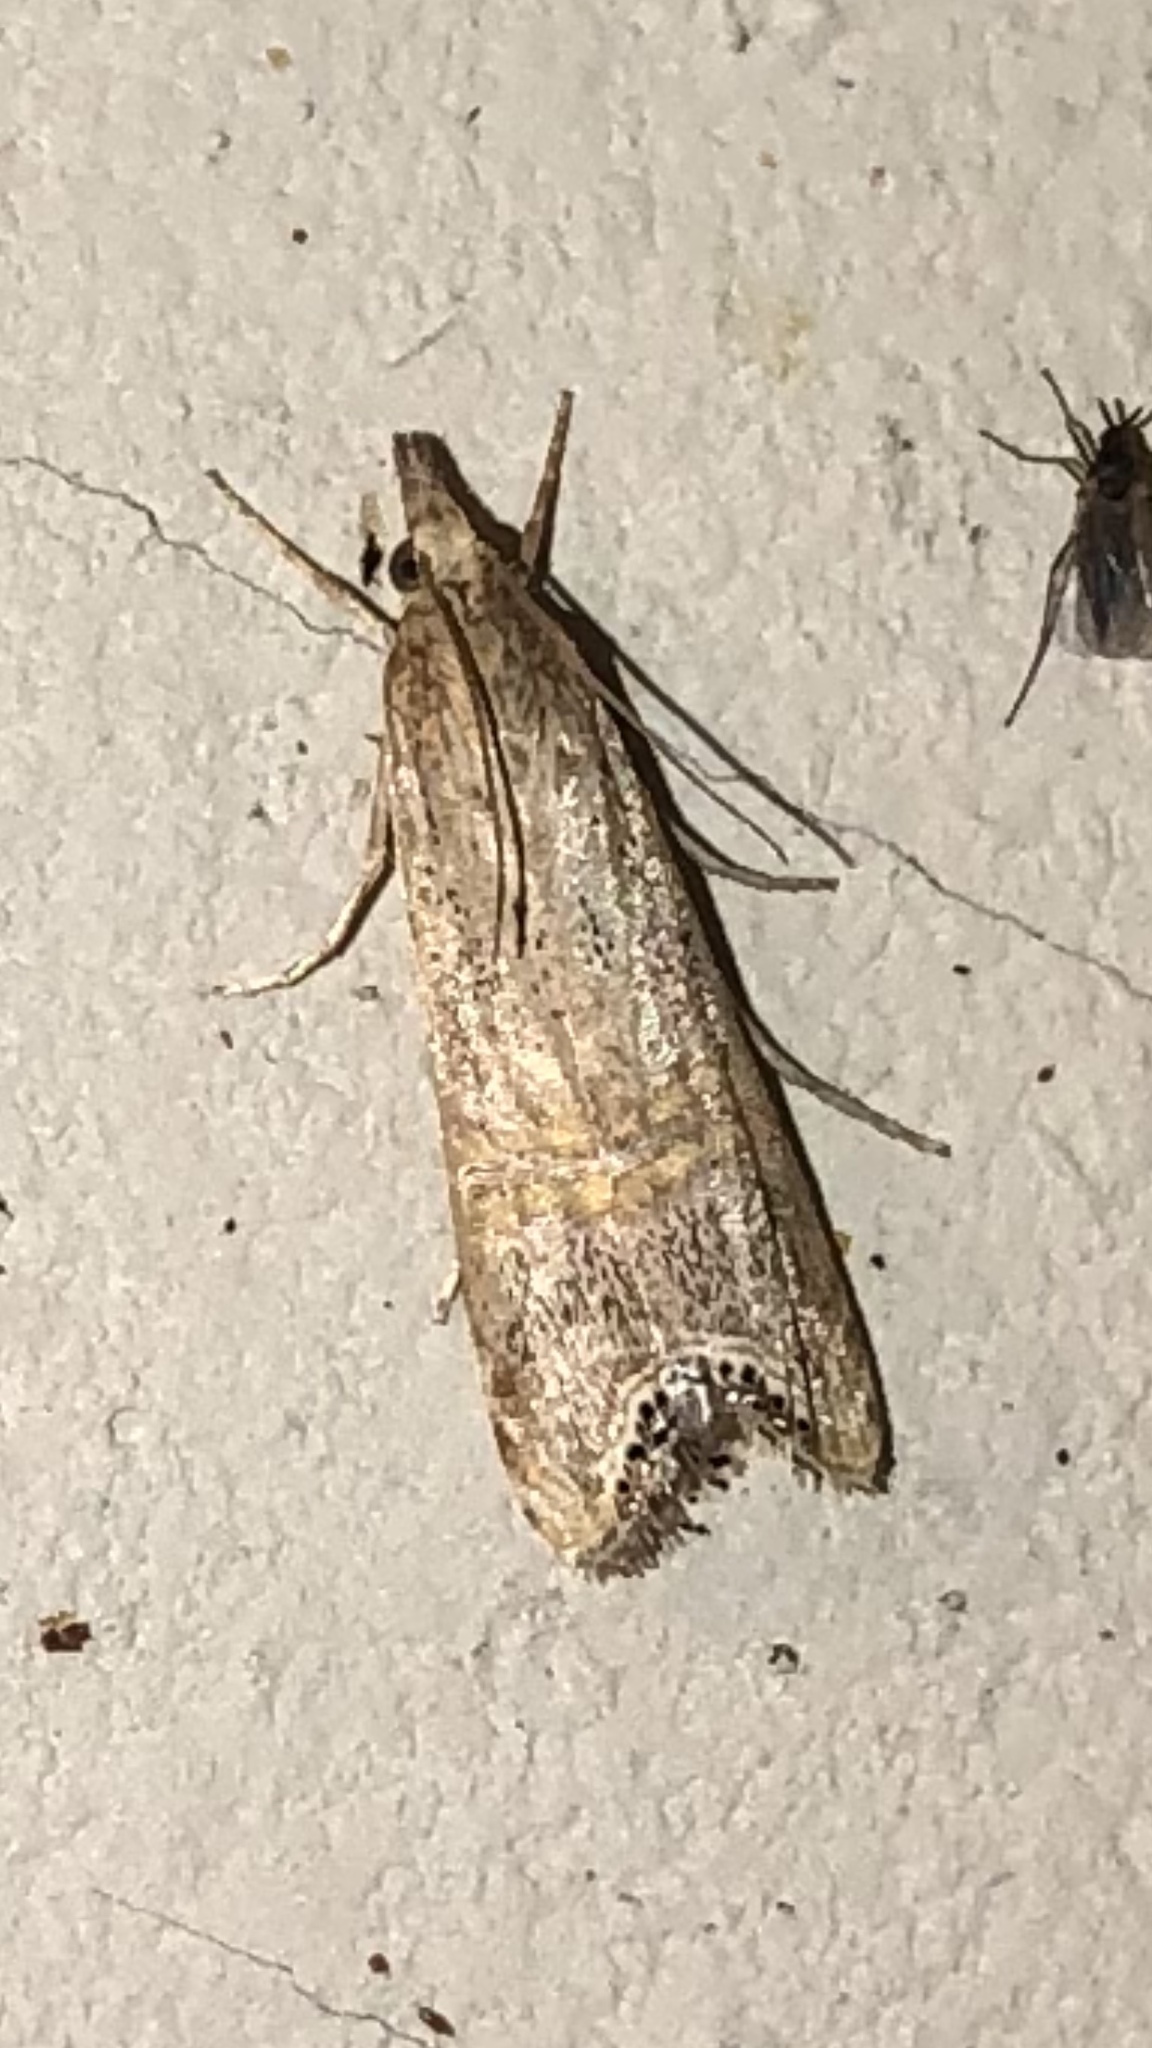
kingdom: Animalia
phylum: Arthropoda
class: Insecta
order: Lepidoptera
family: Crambidae
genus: Euchromius
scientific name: Euchromius ocellea
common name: Necklace veneer moth
